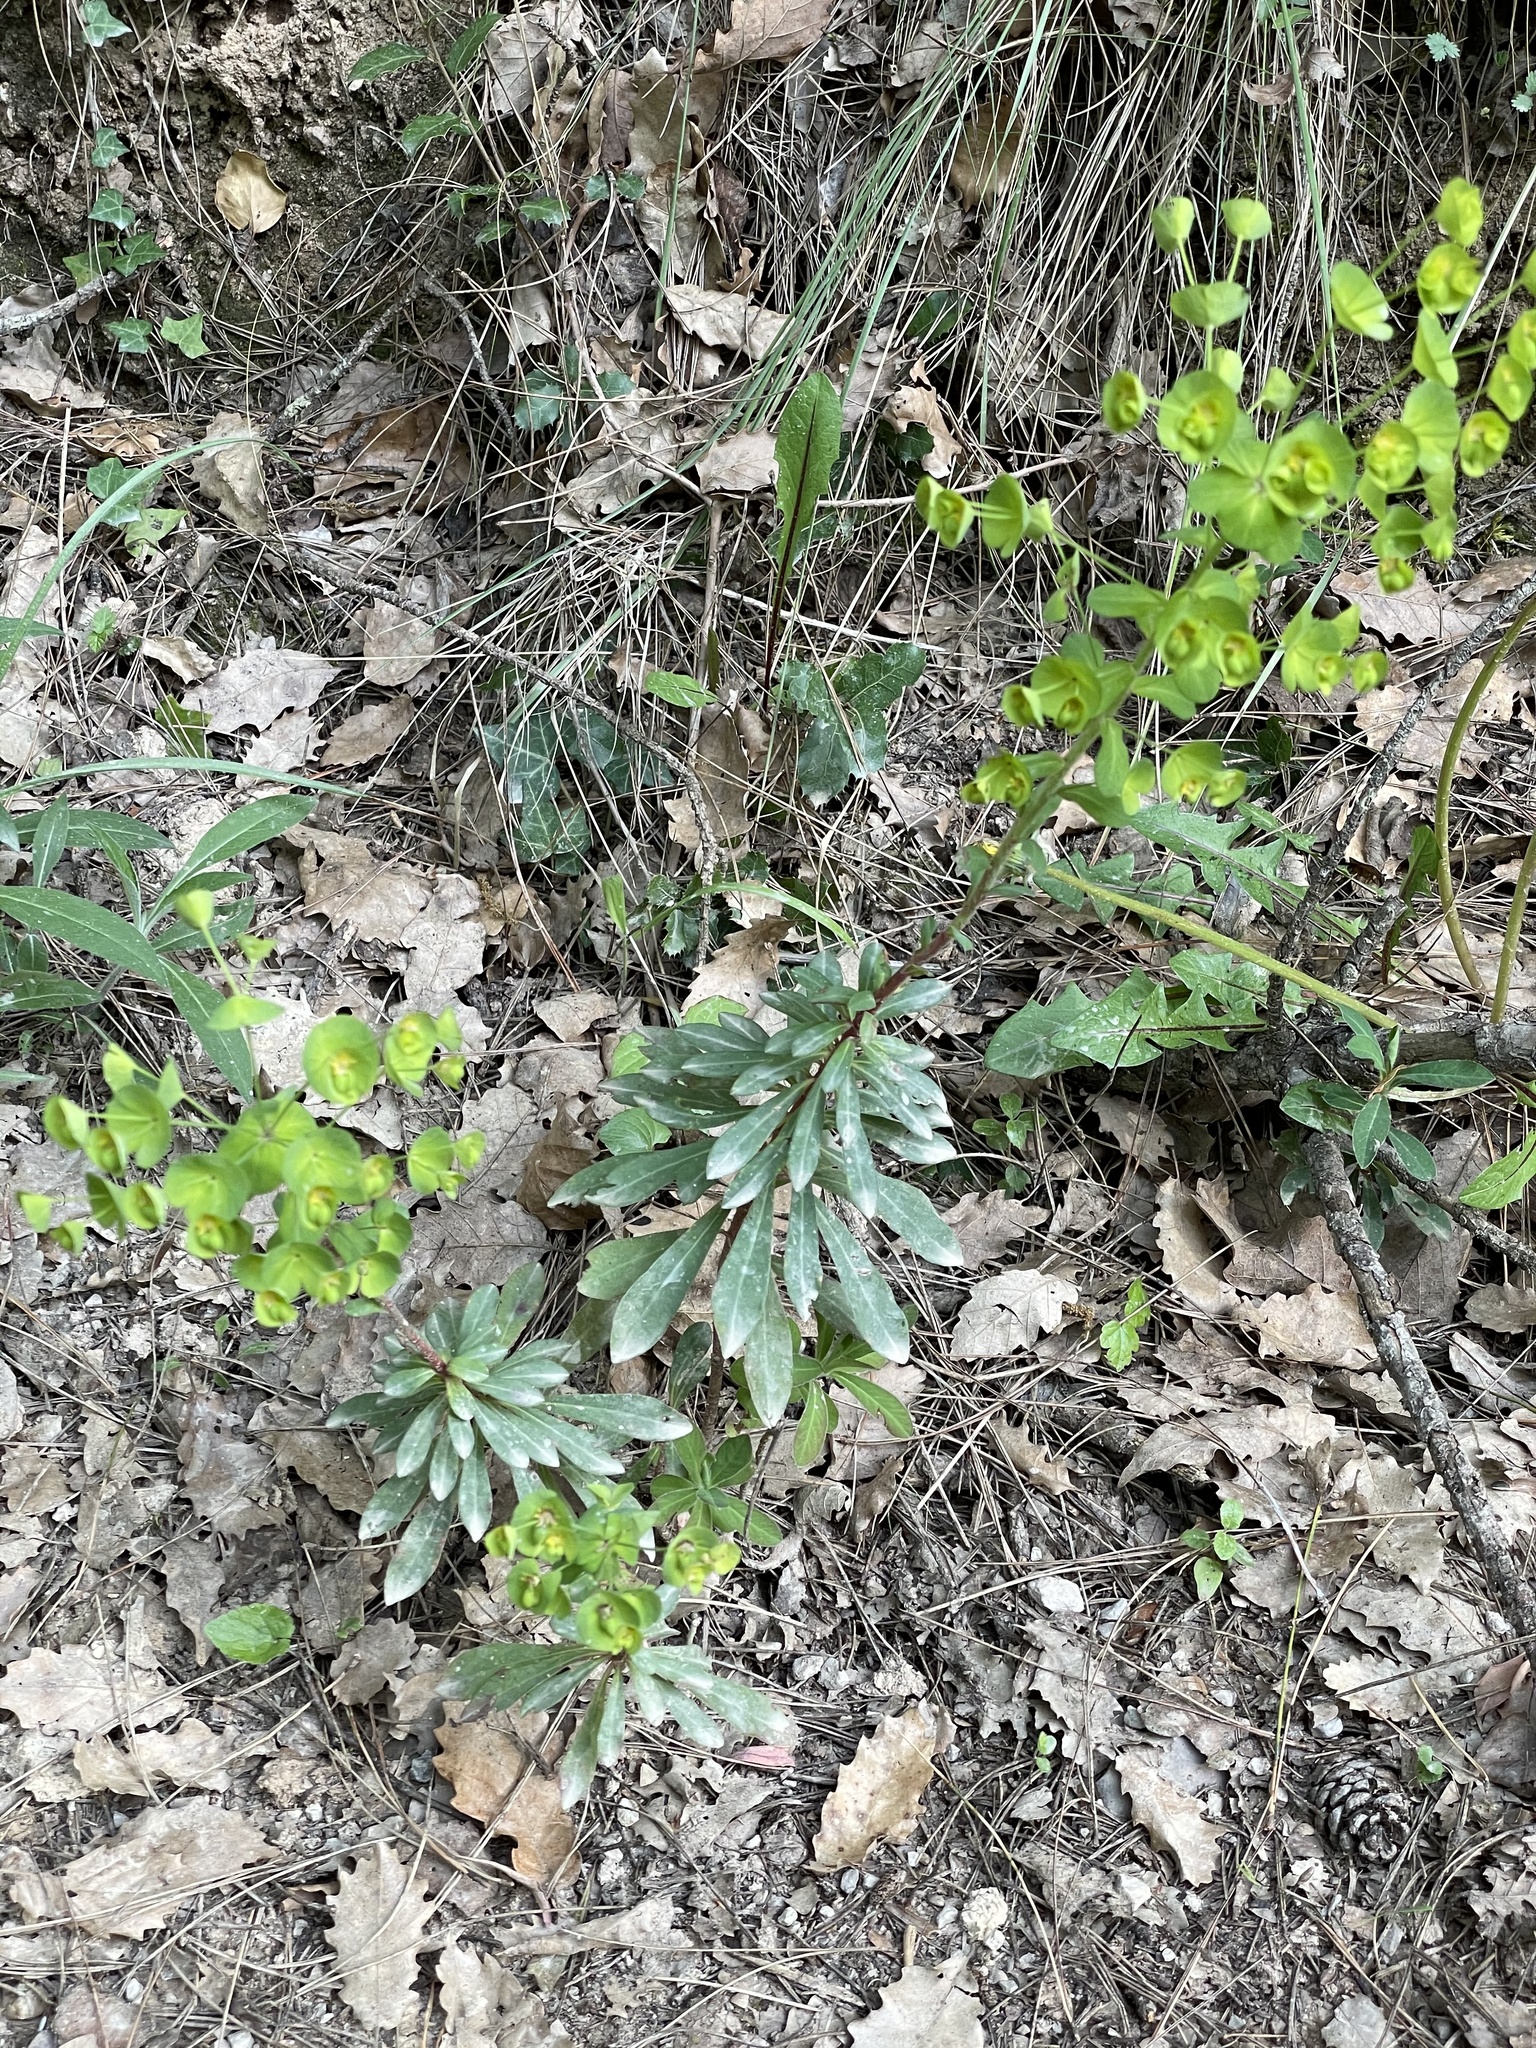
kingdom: Plantae
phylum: Tracheophyta
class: Magnoliopsida
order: Malpighiales
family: Euphorbiaceae
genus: Euphorbia
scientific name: Euphorbia amygdaloides
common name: Wood spurge
